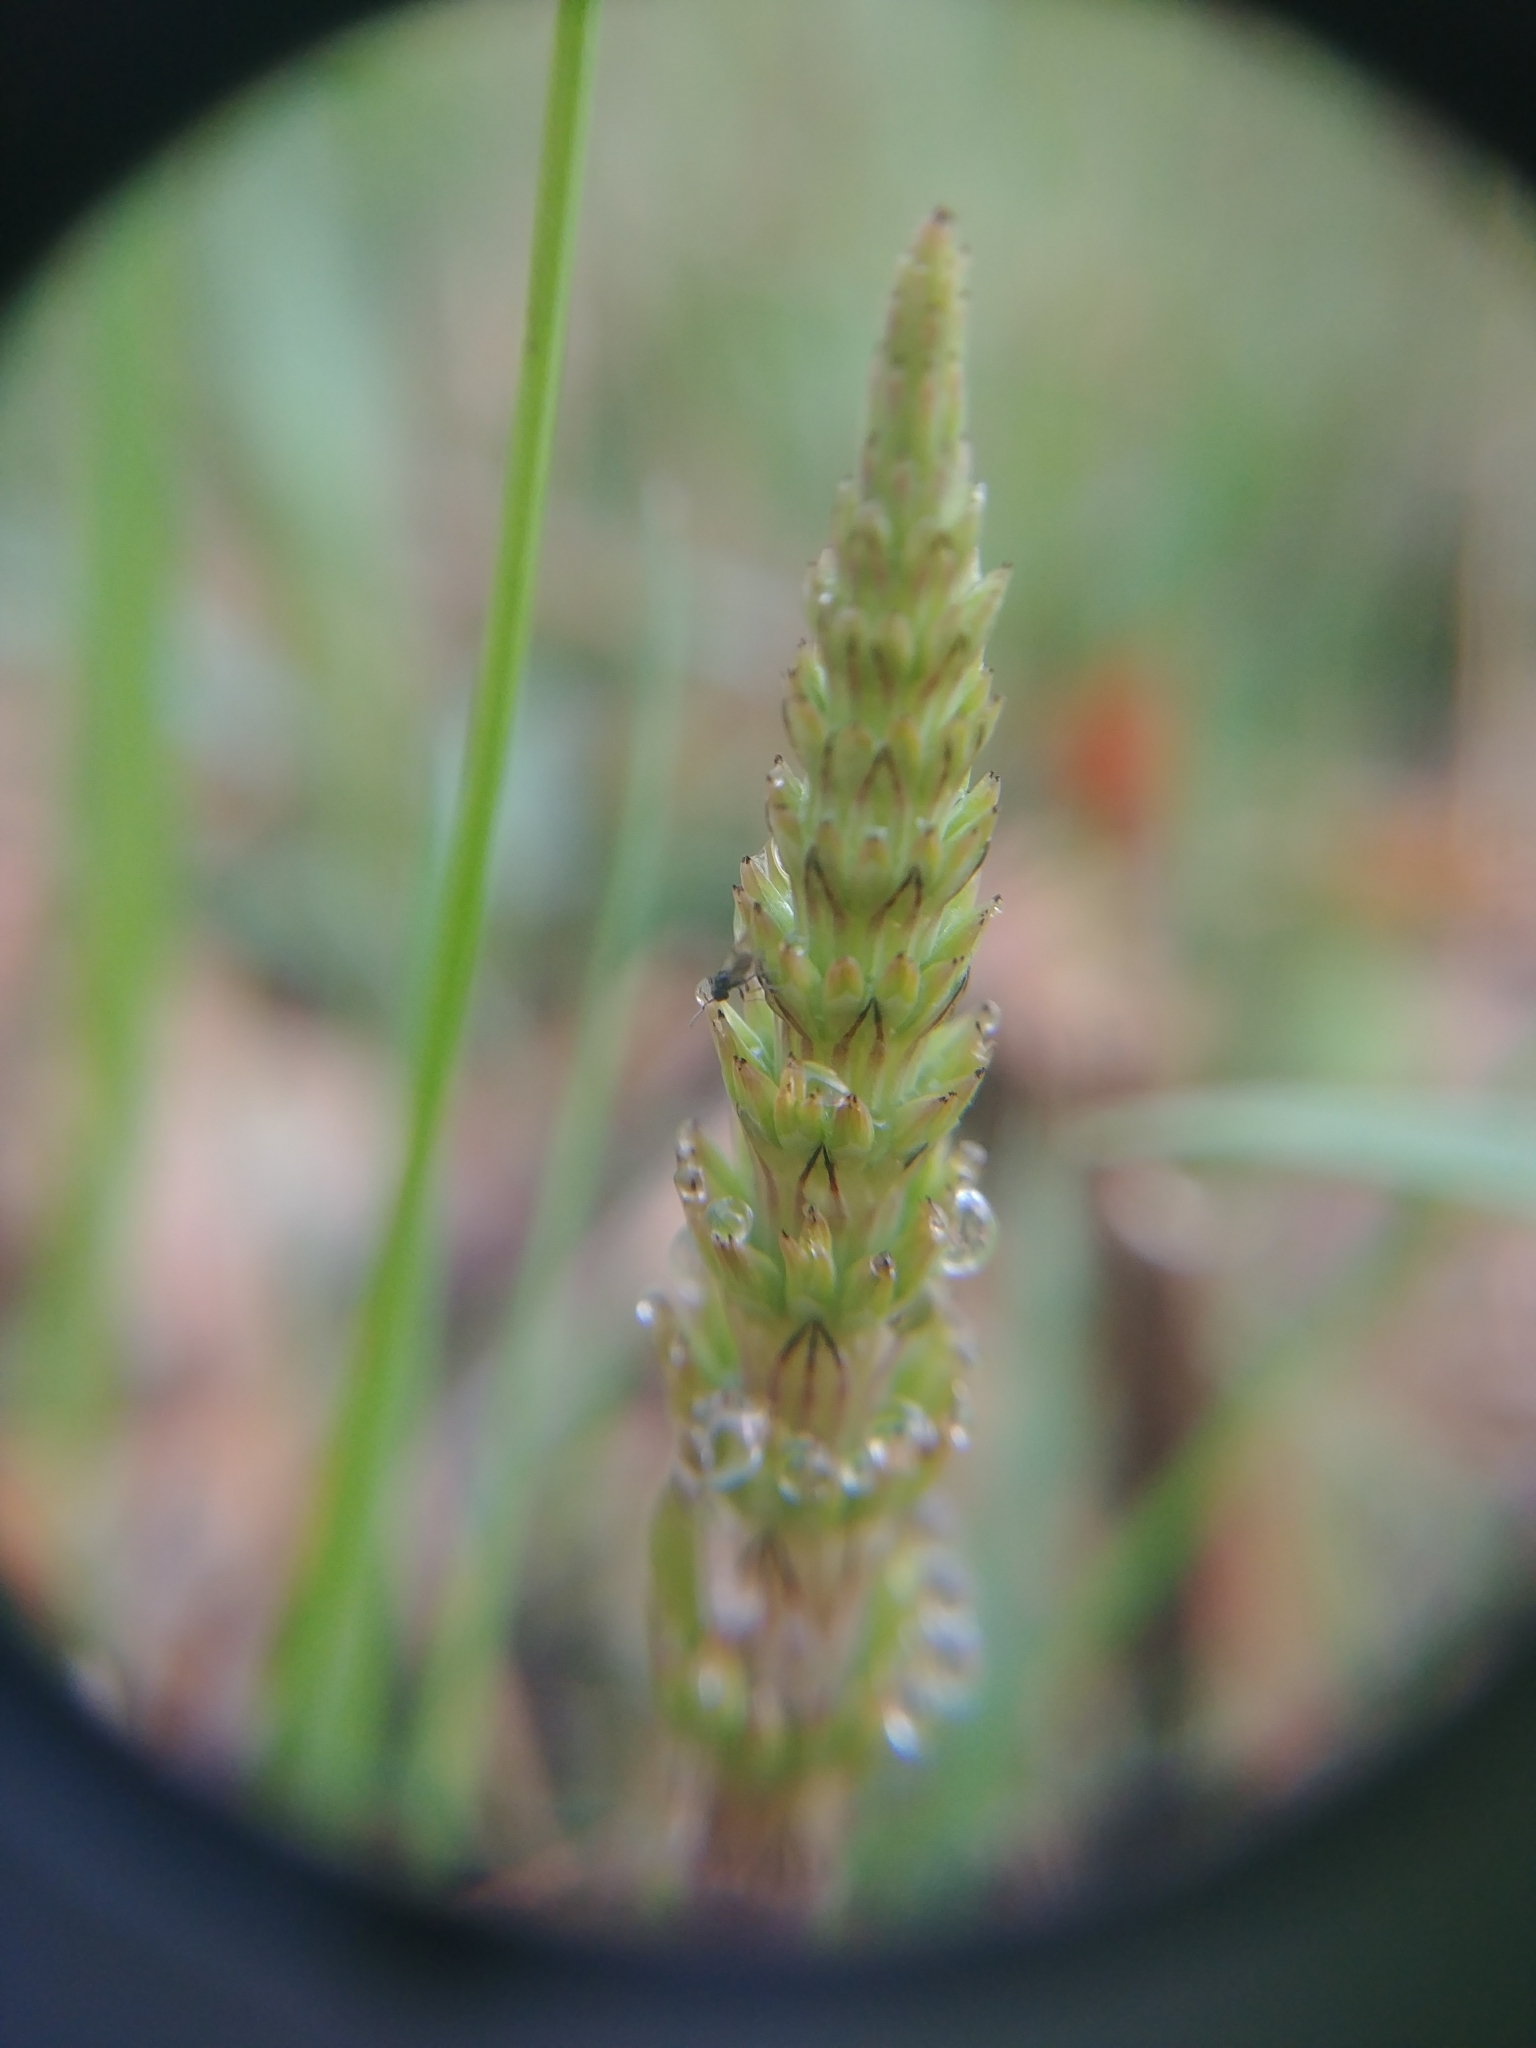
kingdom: Plantae
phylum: Tracheophyta
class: Polypodiopsida
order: Equisetales
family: Equisetaceae
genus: Equisetum
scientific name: Equisetum arvense
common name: Field horsetail
